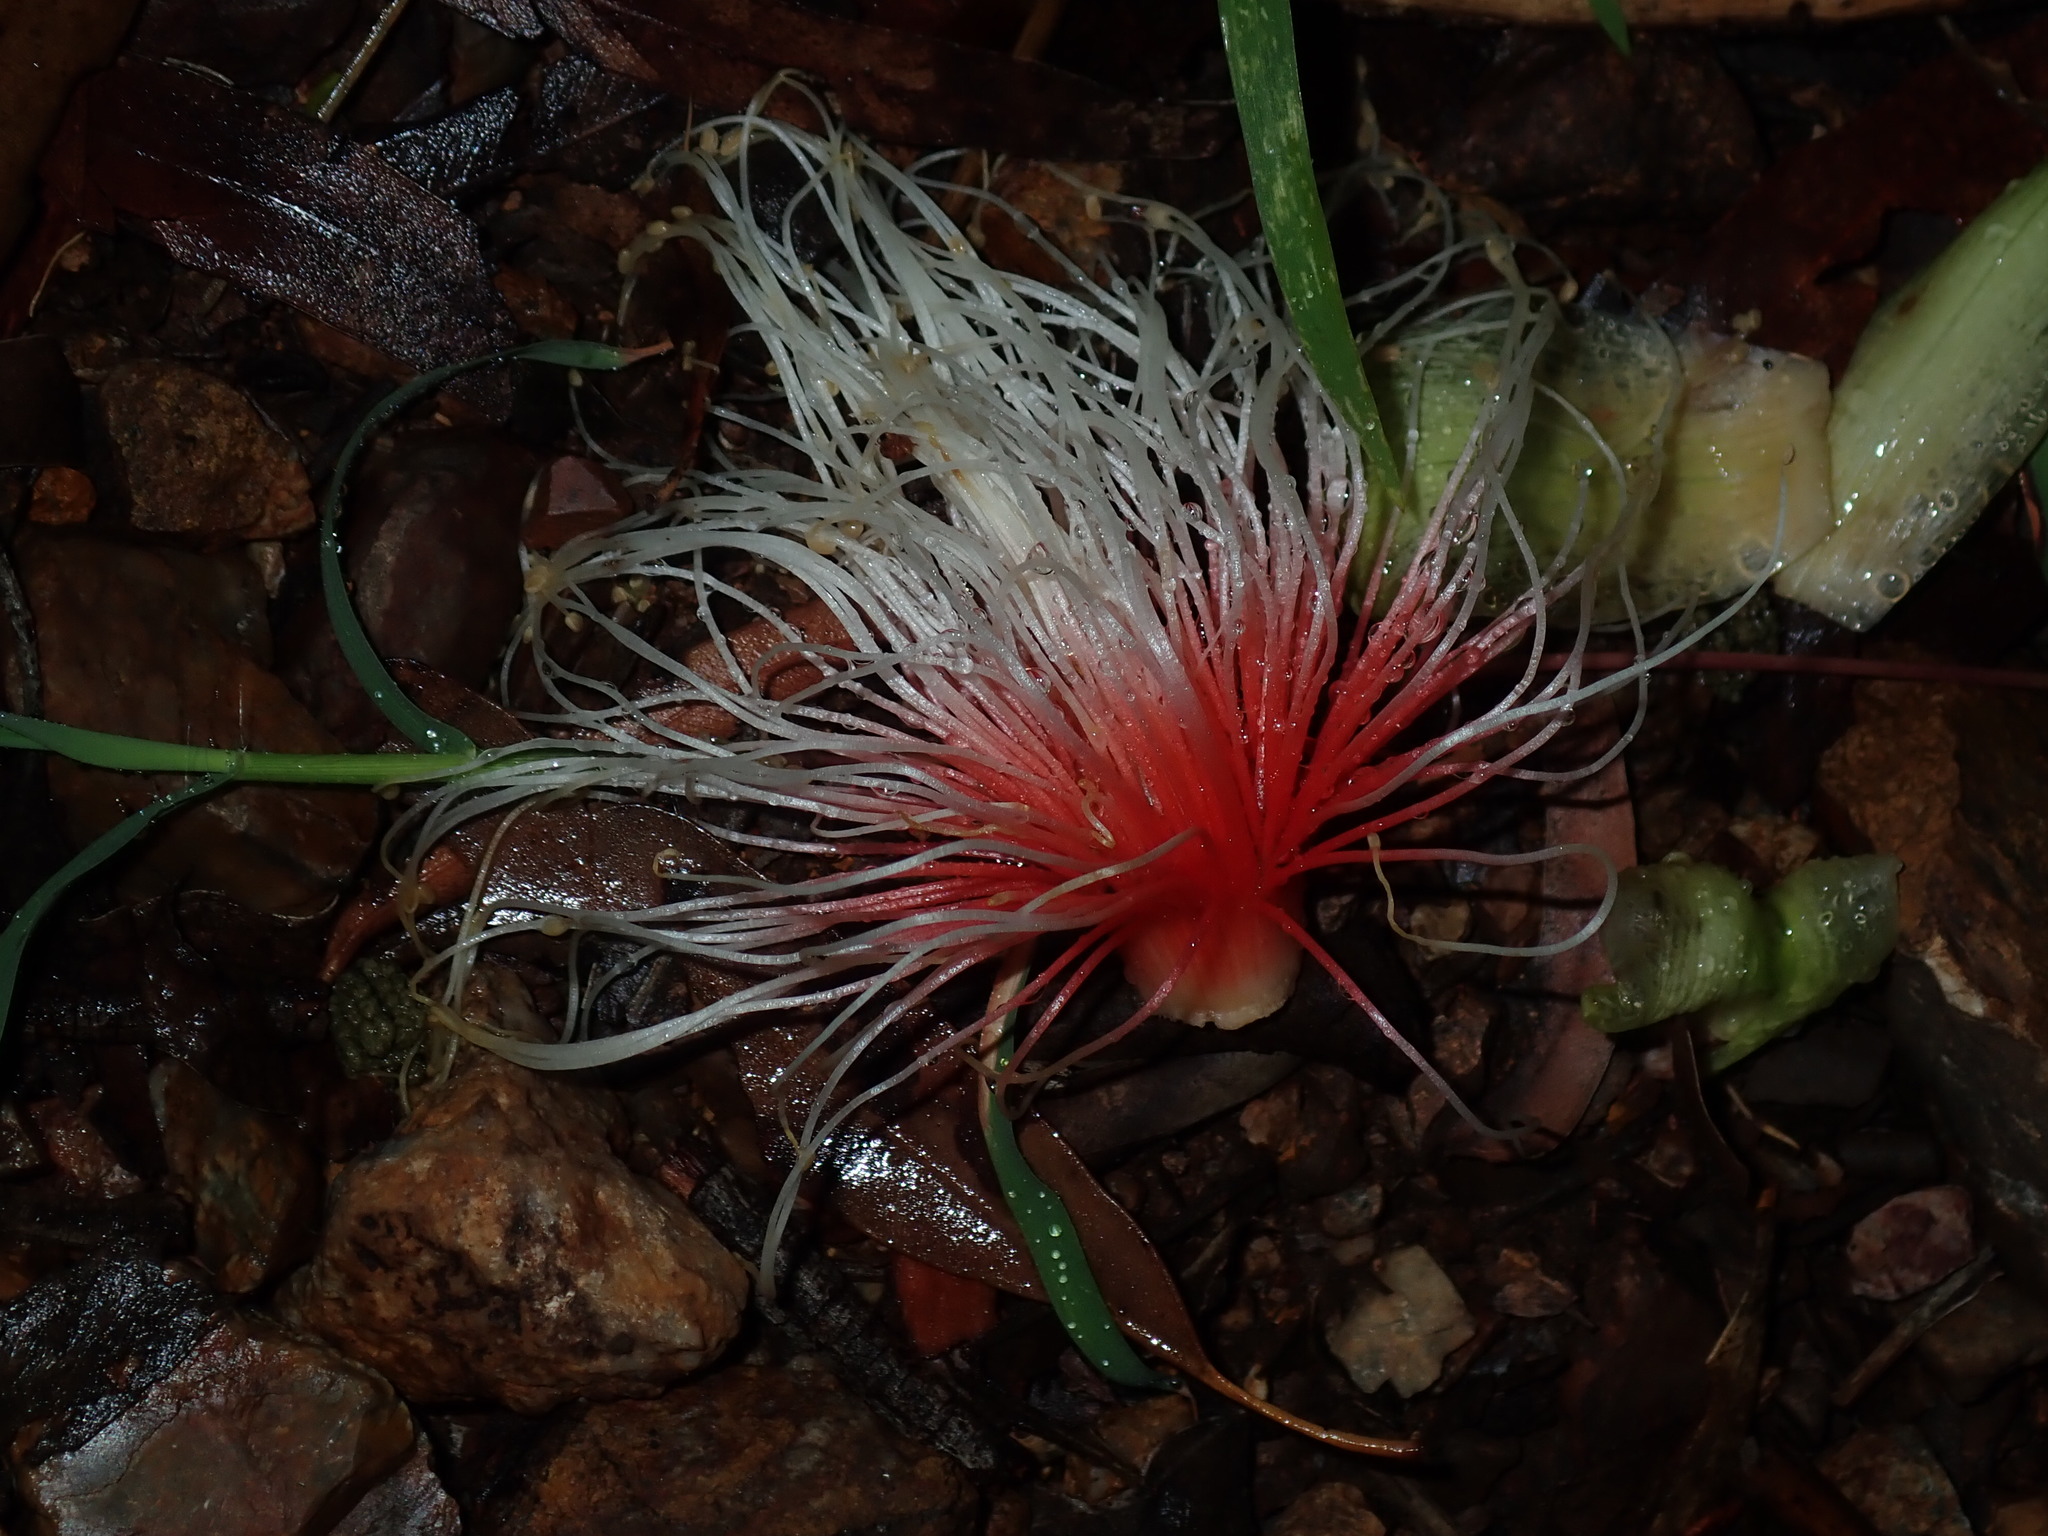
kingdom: Plantae
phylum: Tracheophyta
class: Magnoliopsida
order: Ericales
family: Lecythidaceae
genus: Planchonia
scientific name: Planchonia careya
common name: Cockatoo-apple
